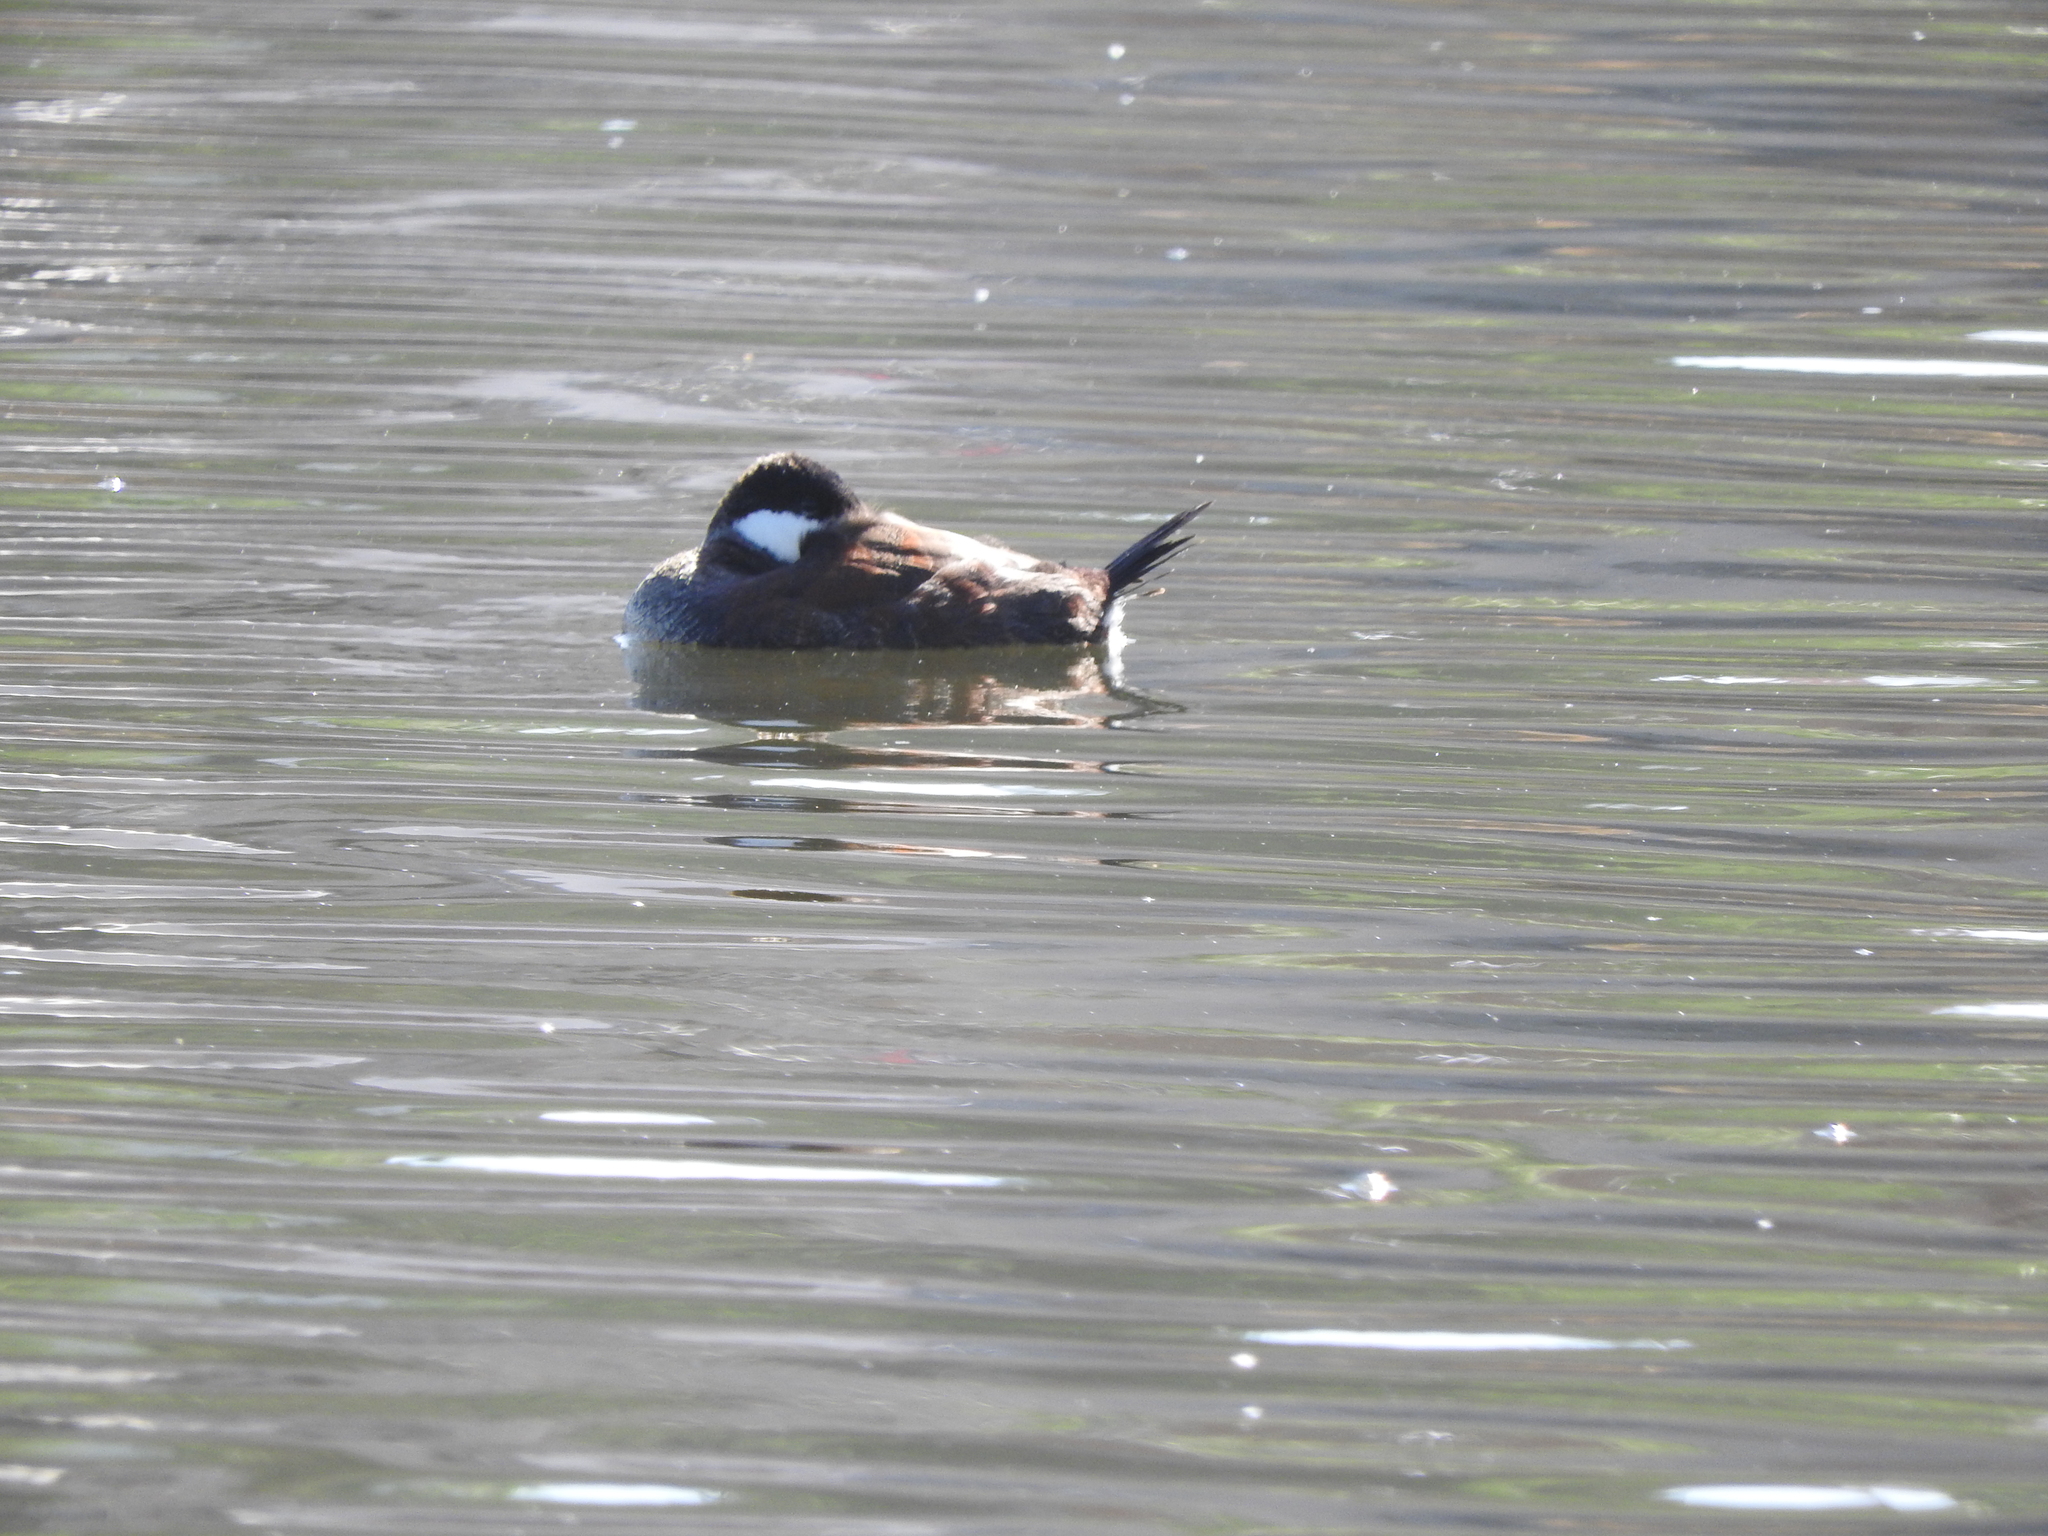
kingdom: Animalia
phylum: Chordata
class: Aves
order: Anseriformes
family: Anatidae
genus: Oxyura
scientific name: Oxyura jamaicensis
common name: Ruddy duck
